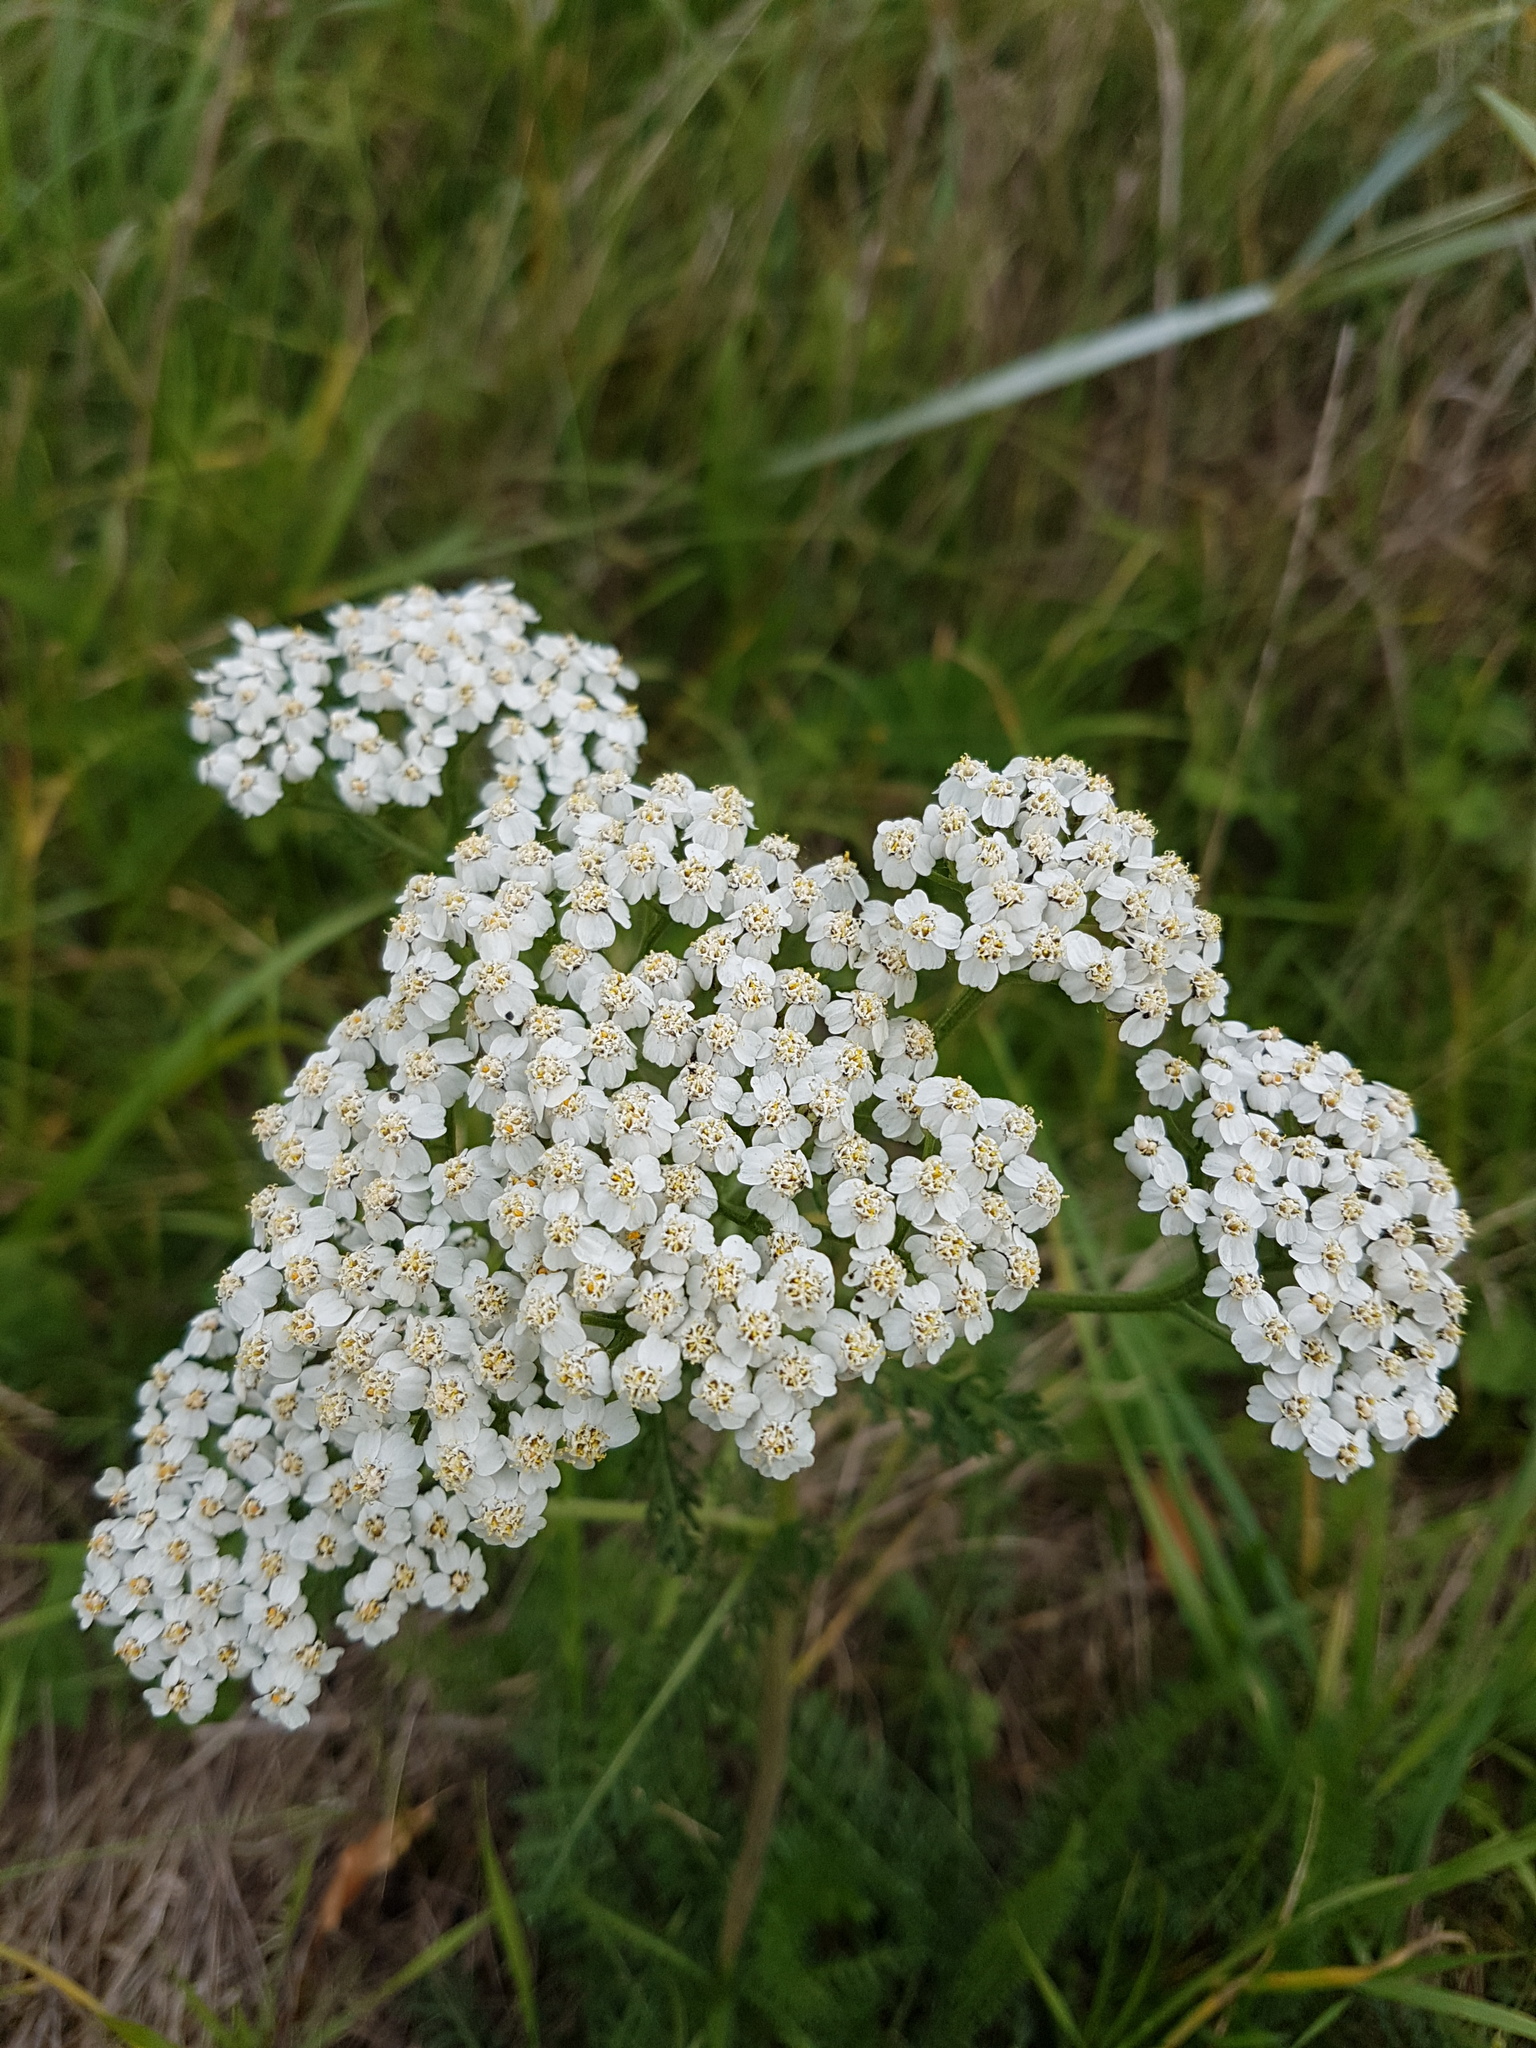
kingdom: Plantae
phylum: Tracheophyta
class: Magnoliopsida
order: Asterales
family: Asteraceae
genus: Achillea
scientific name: Achillea millefolium
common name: Yarrow
